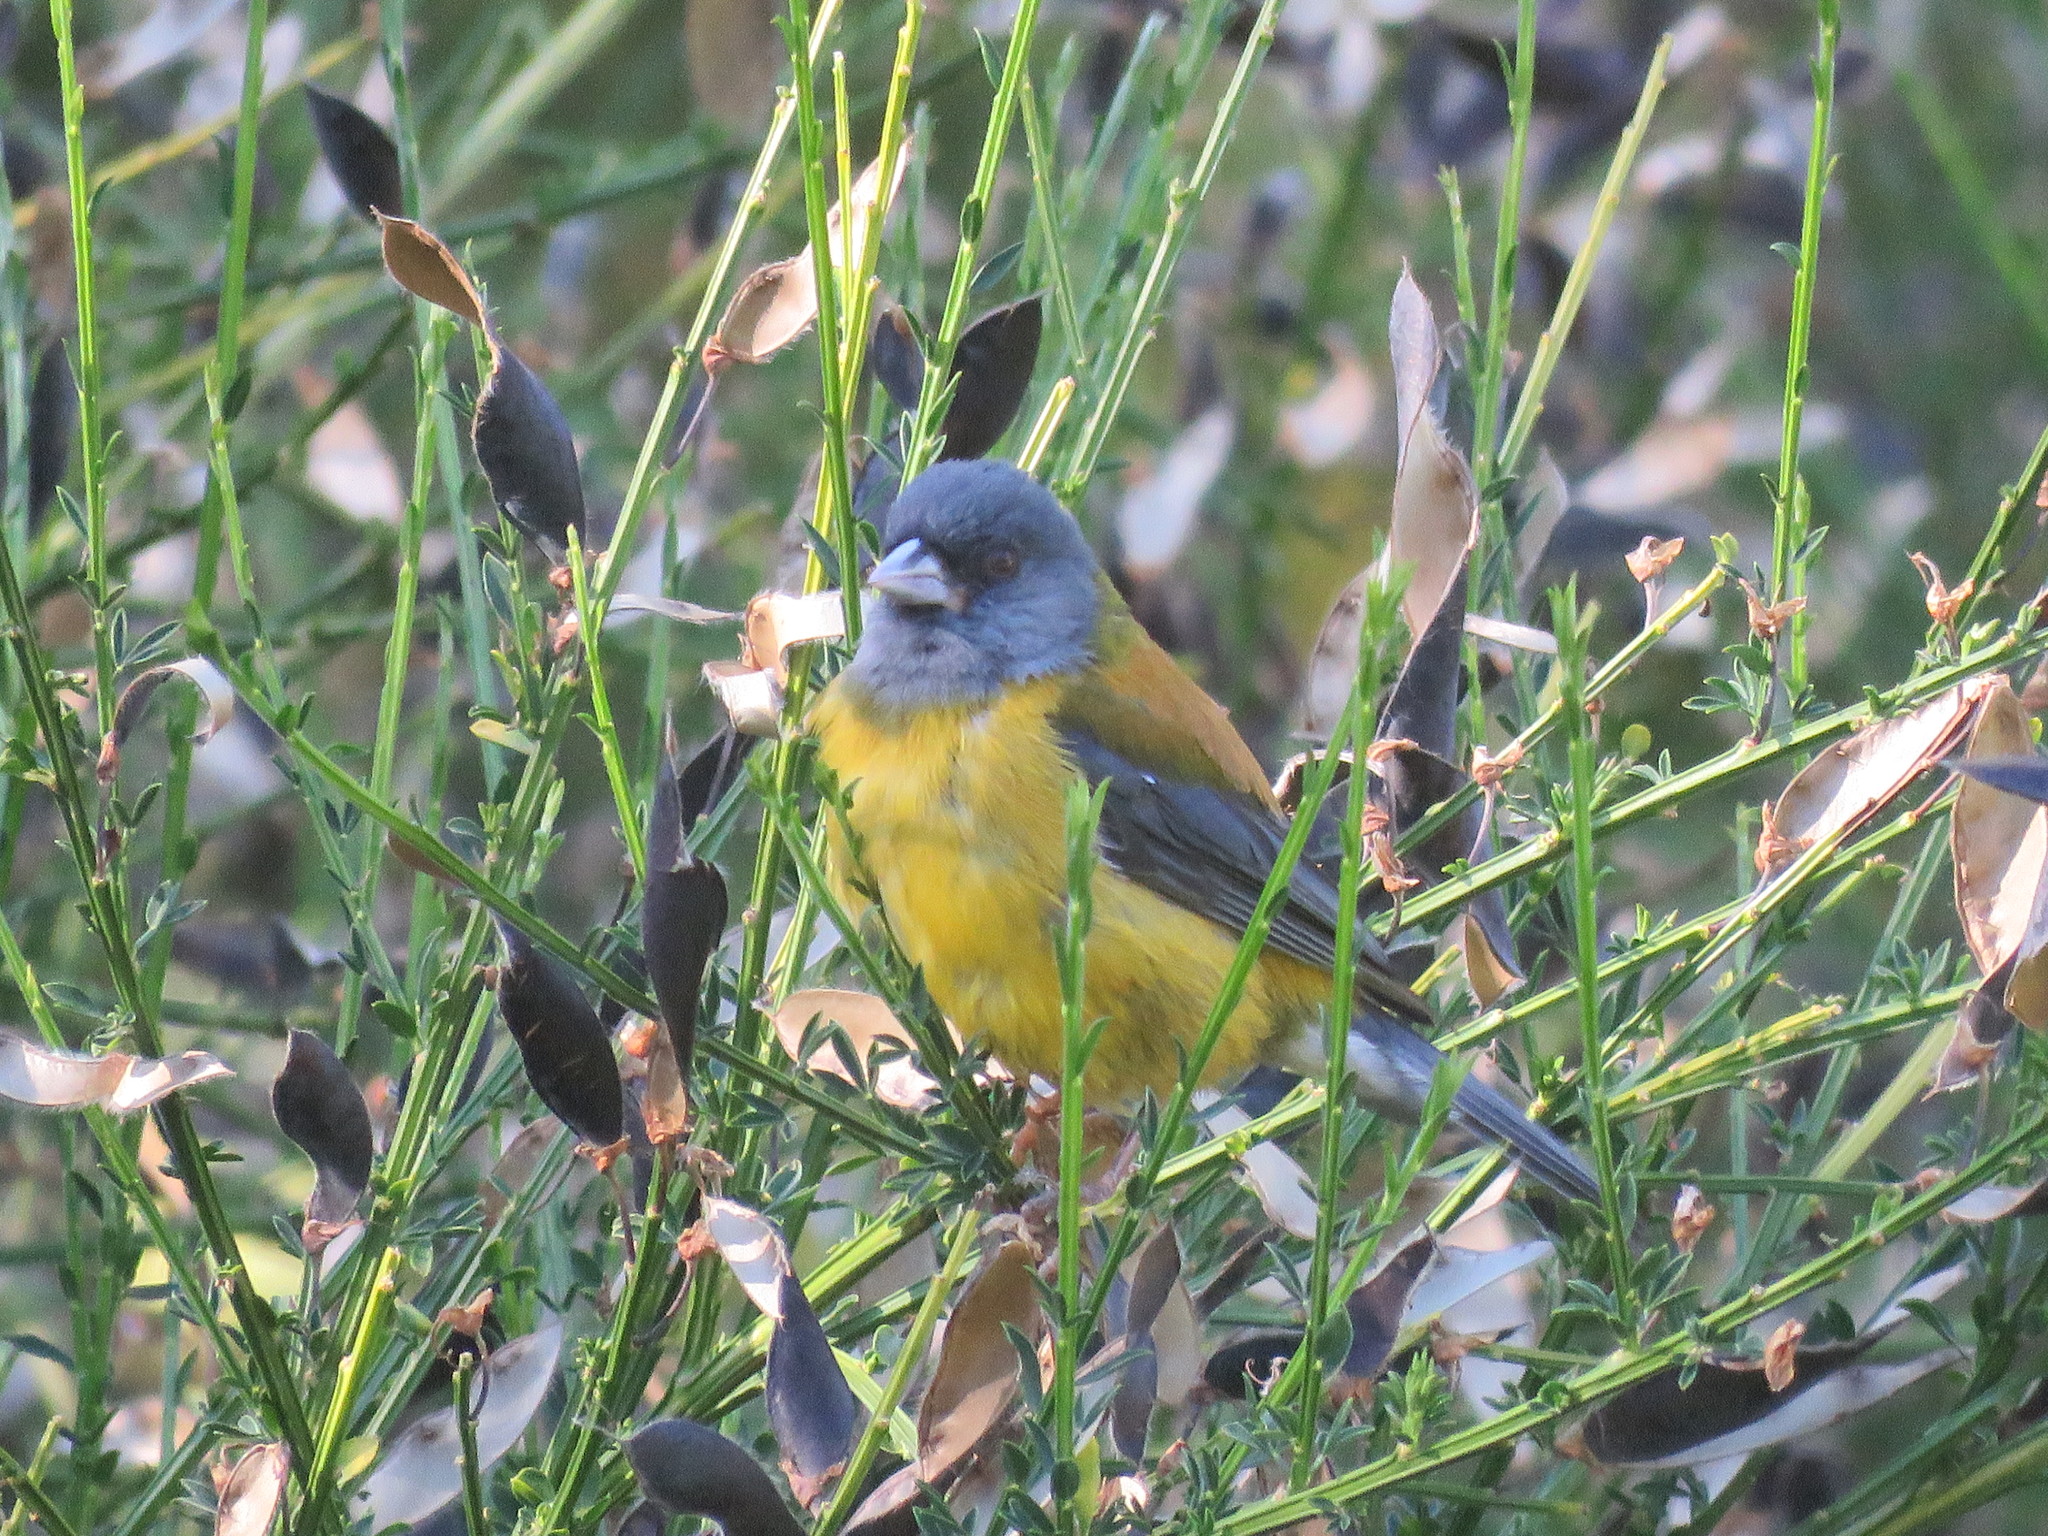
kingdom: Animalia
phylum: Chordata
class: Aves
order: Passeriformes
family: Thraupidae
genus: Phrygilus
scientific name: Phrygilus patagonicus
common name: Patagonian sierra finch
